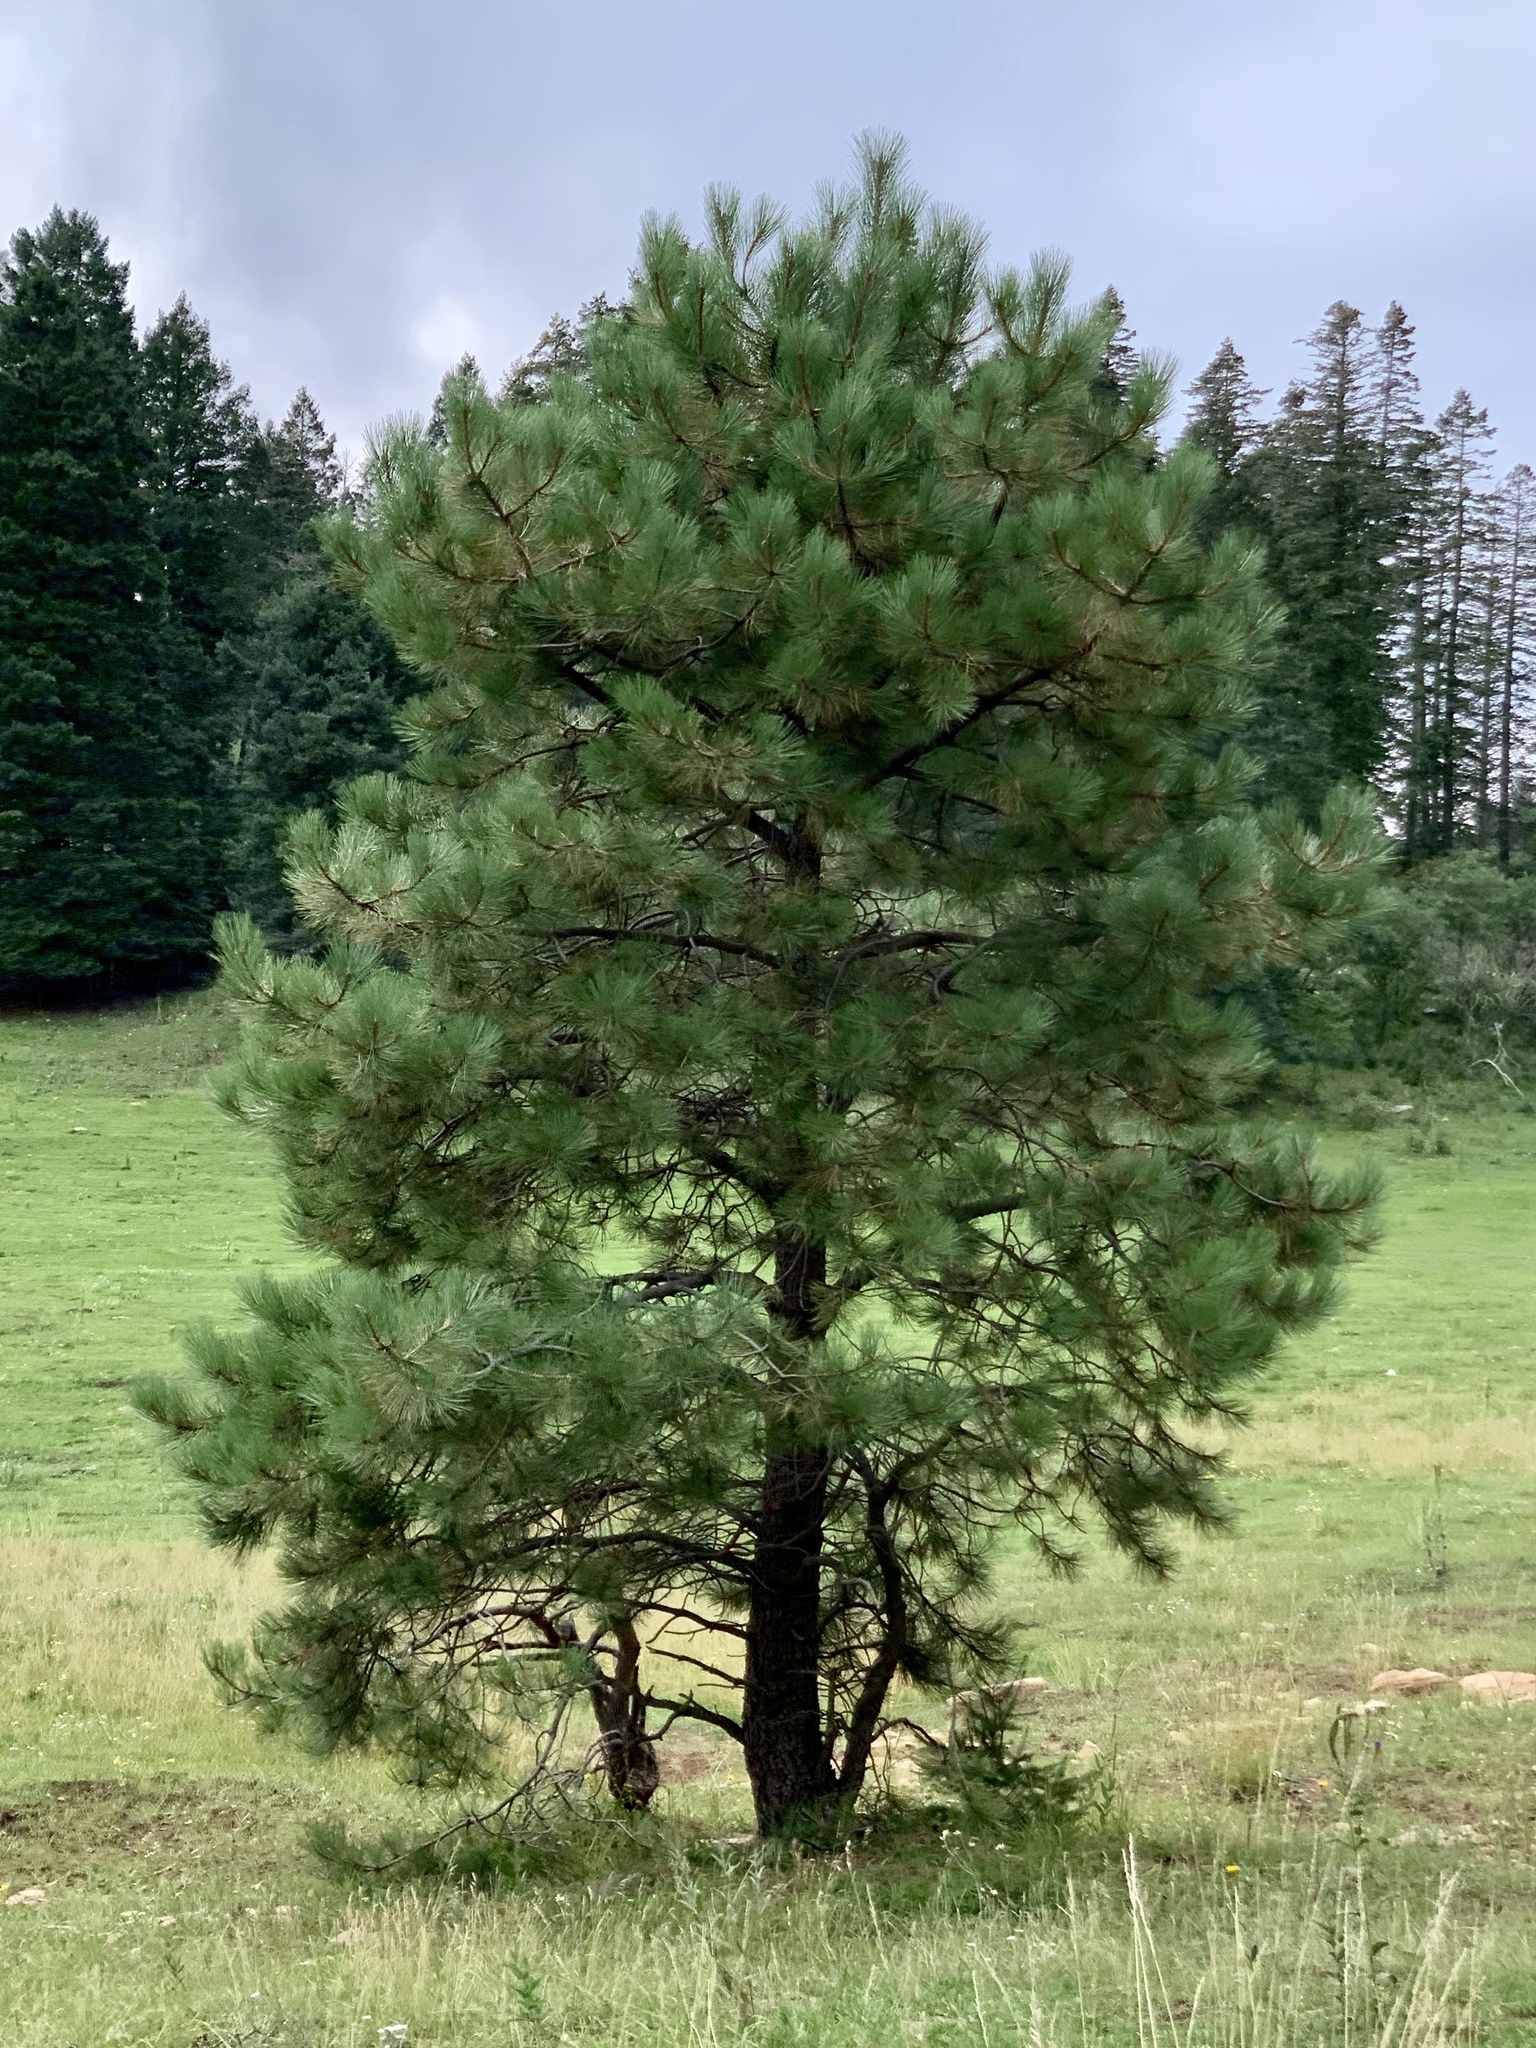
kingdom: Plantae
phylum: Tracheophyta
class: Pinopsida
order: Pinales
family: Pinaceae
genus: Pinus
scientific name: Pinus ponderosa
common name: Western yellow-pine
